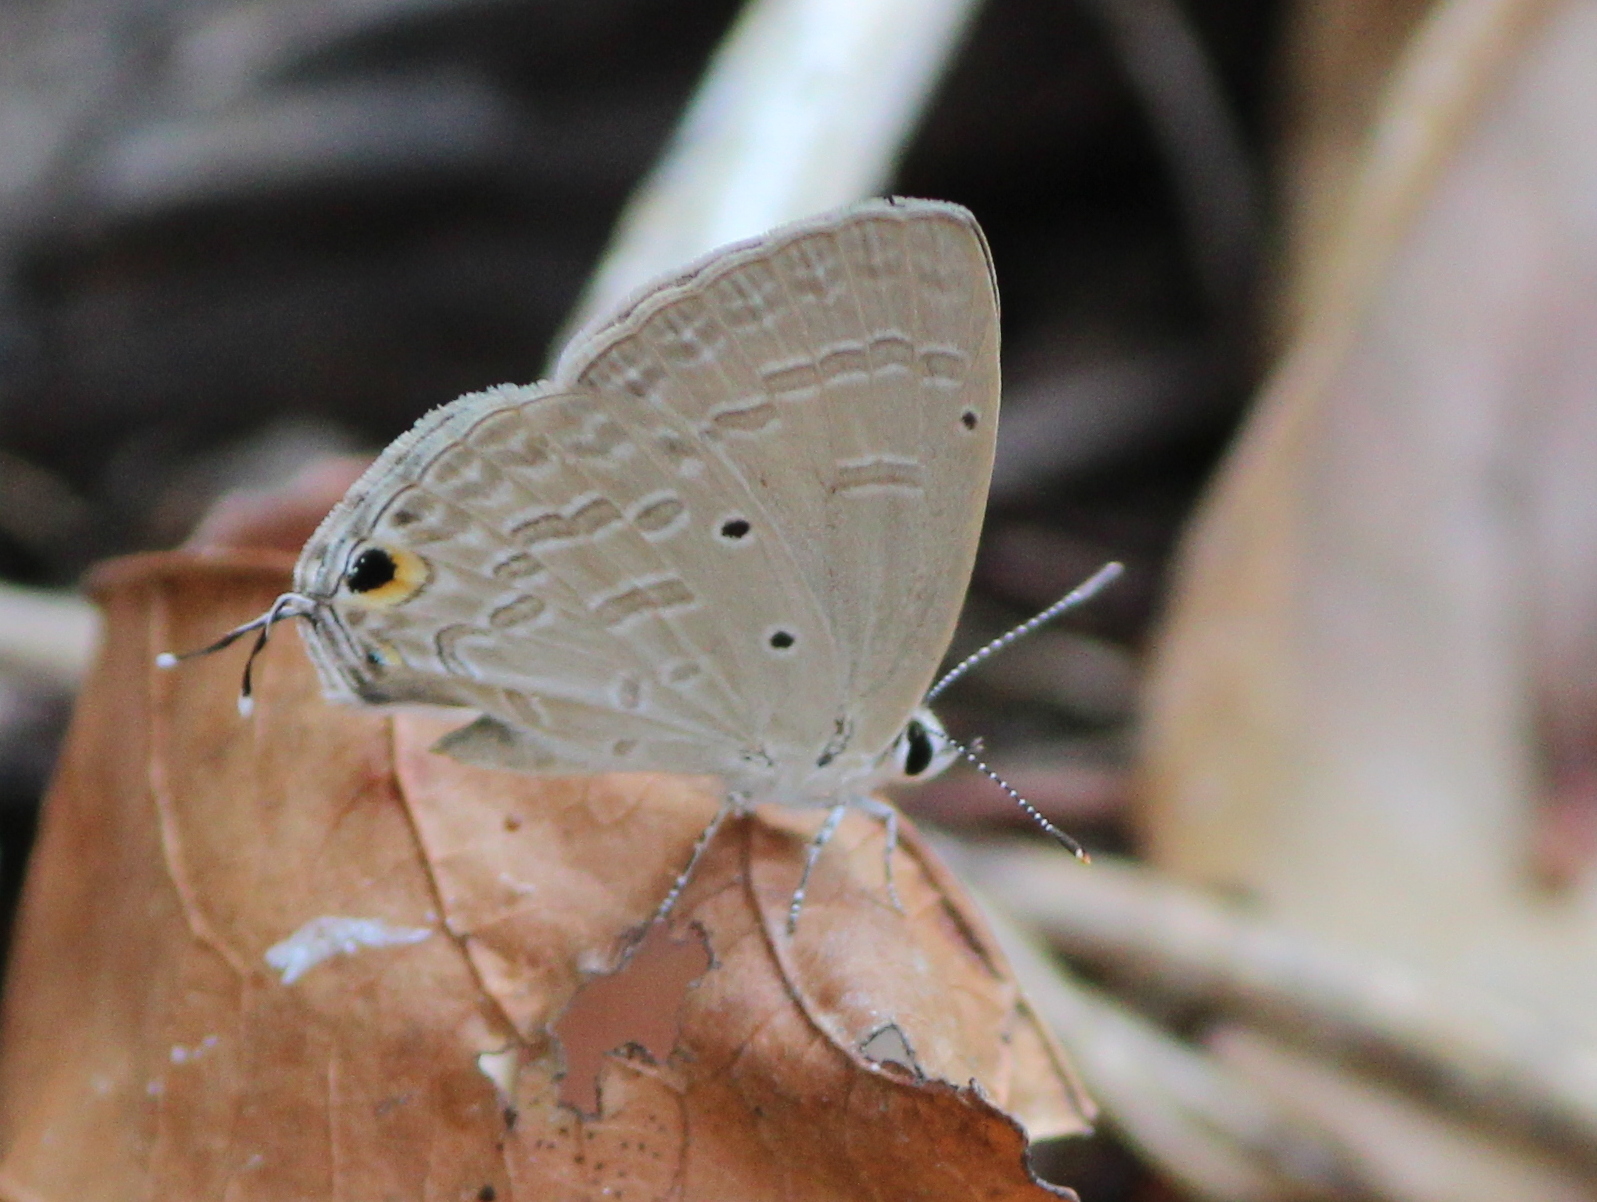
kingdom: Animalia
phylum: Arthropoda
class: Insecta
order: Lepidoptera
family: Lycaenidae
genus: Catochrysops
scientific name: Catochrysops strabo
